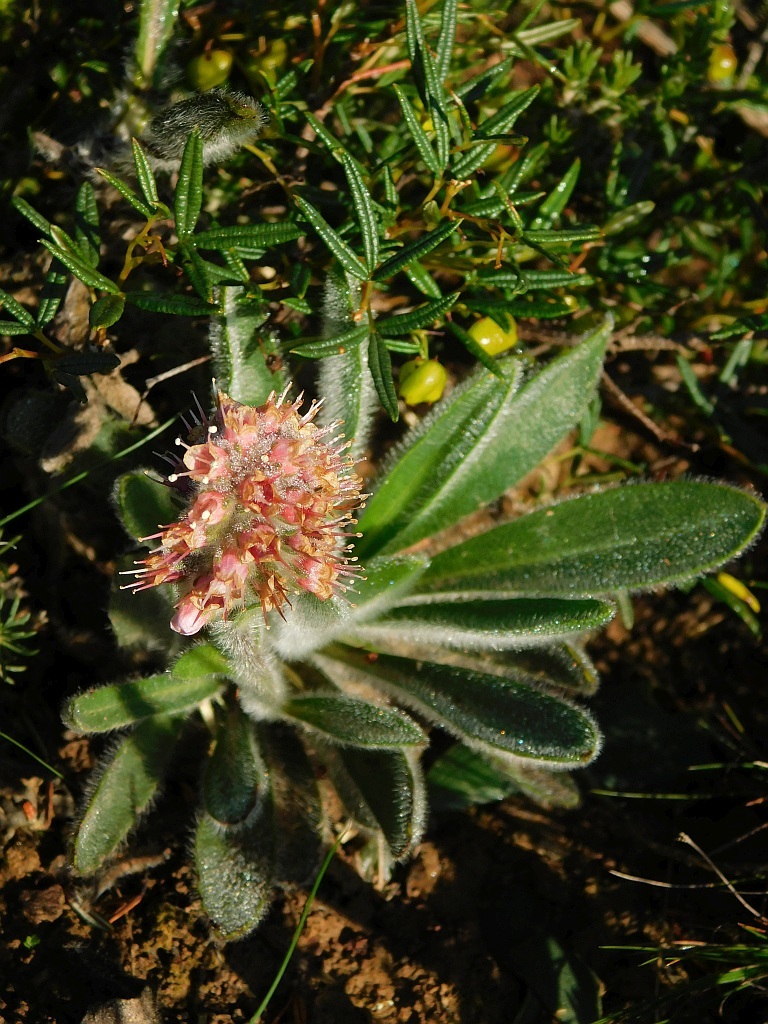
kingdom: Plantae
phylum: Tracheophyta
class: Magnoliopsida
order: Boraginales
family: Boraginaceae
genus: Lobostemon
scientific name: Lobostemon ecklonianus
